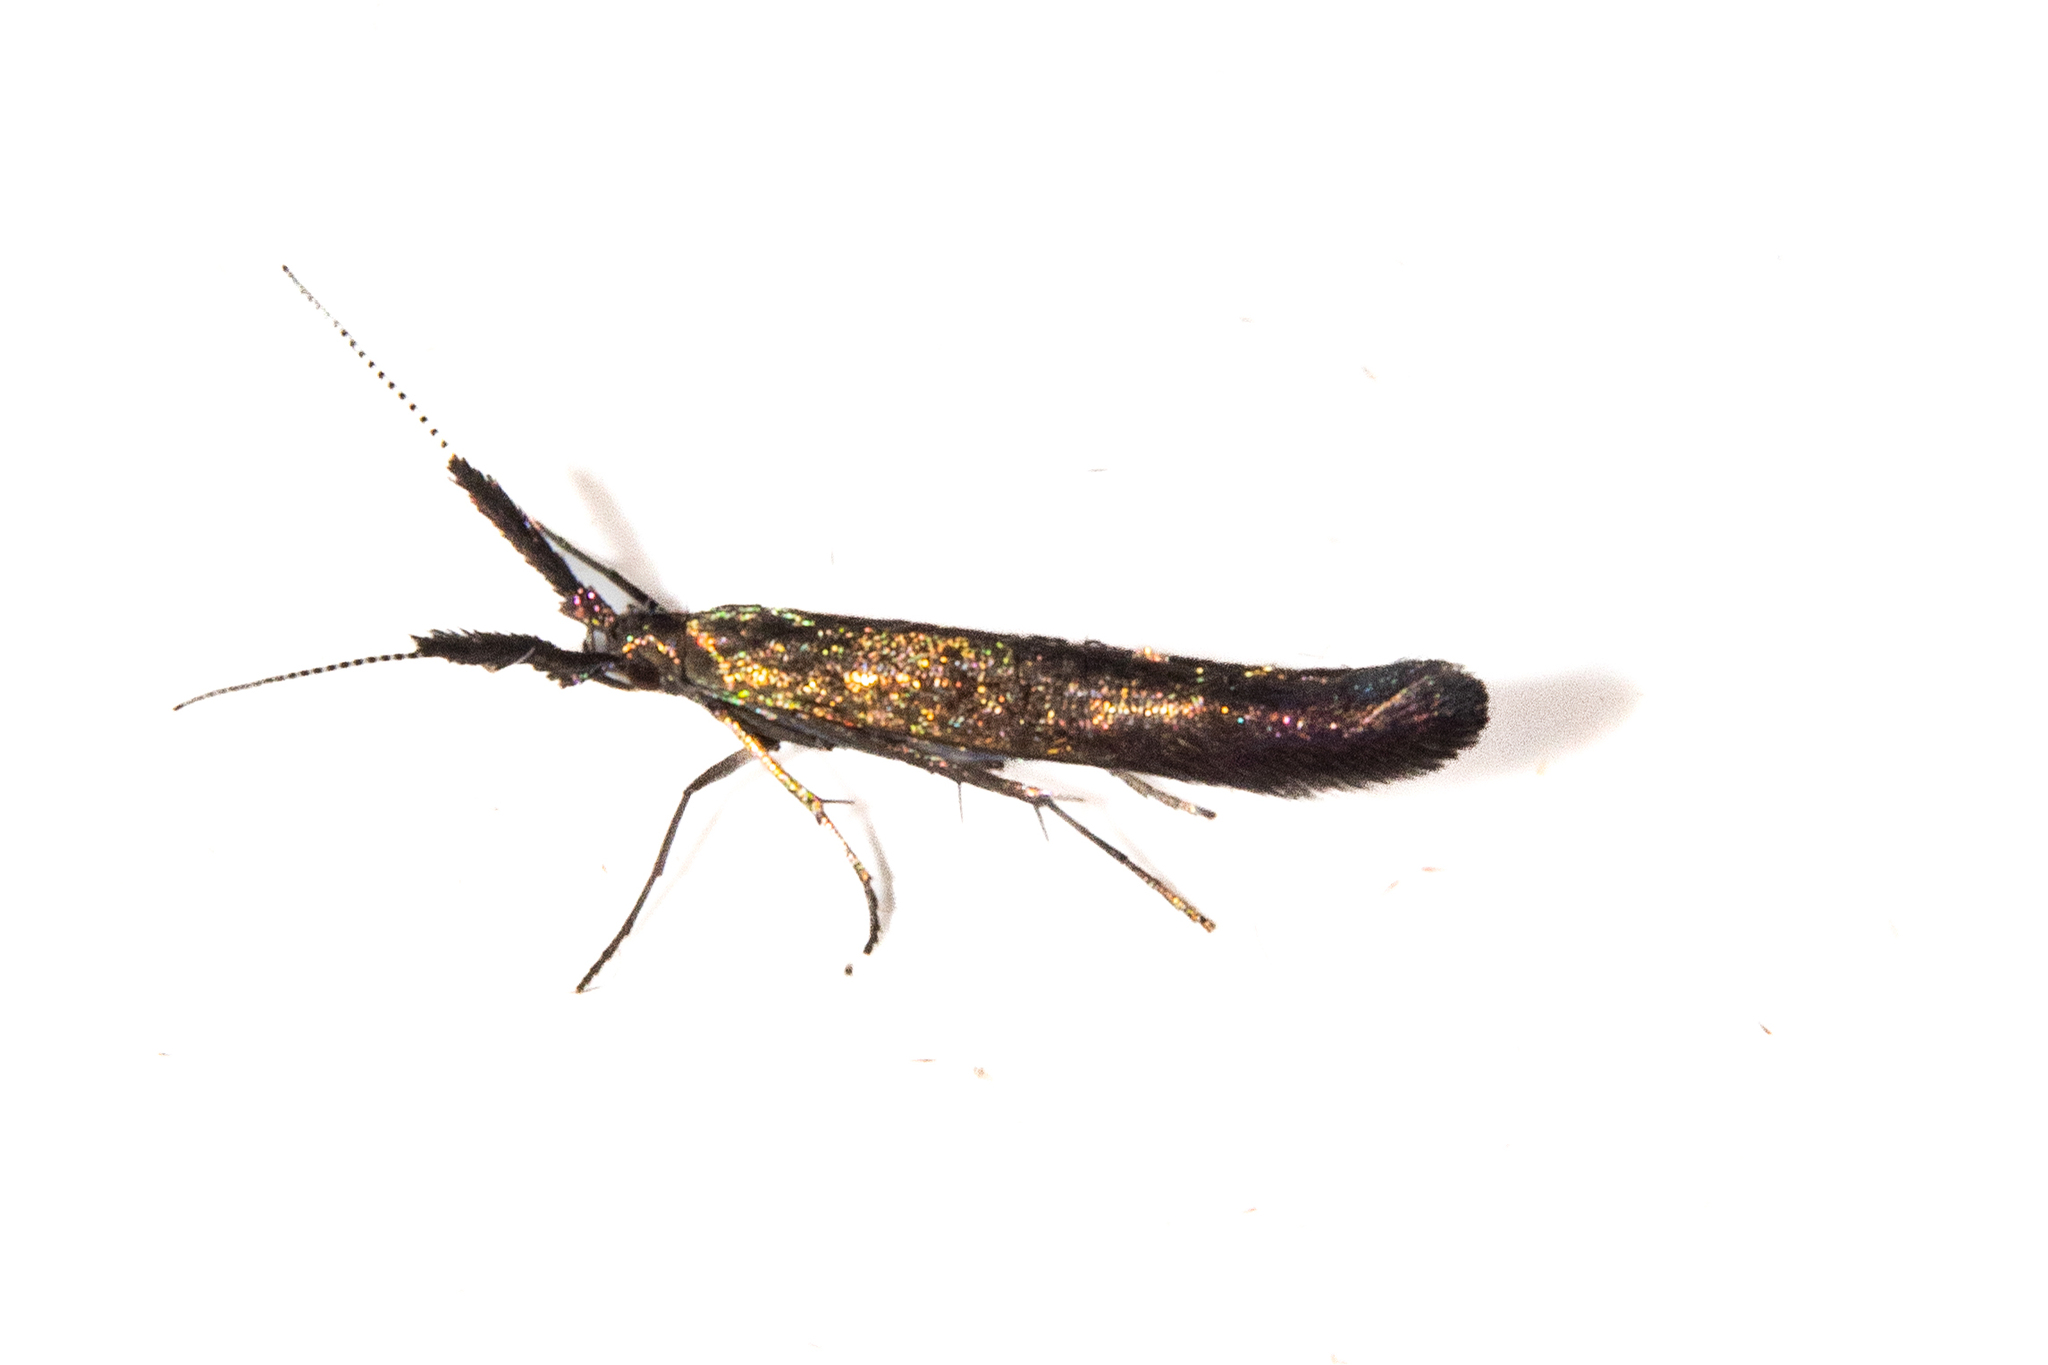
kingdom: Animalia
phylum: Arthropoda
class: Insecta
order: Lepidoptera
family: Coleophoridae
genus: Coleophora
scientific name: Coleophora mayrella
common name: Meadow case-bearer
